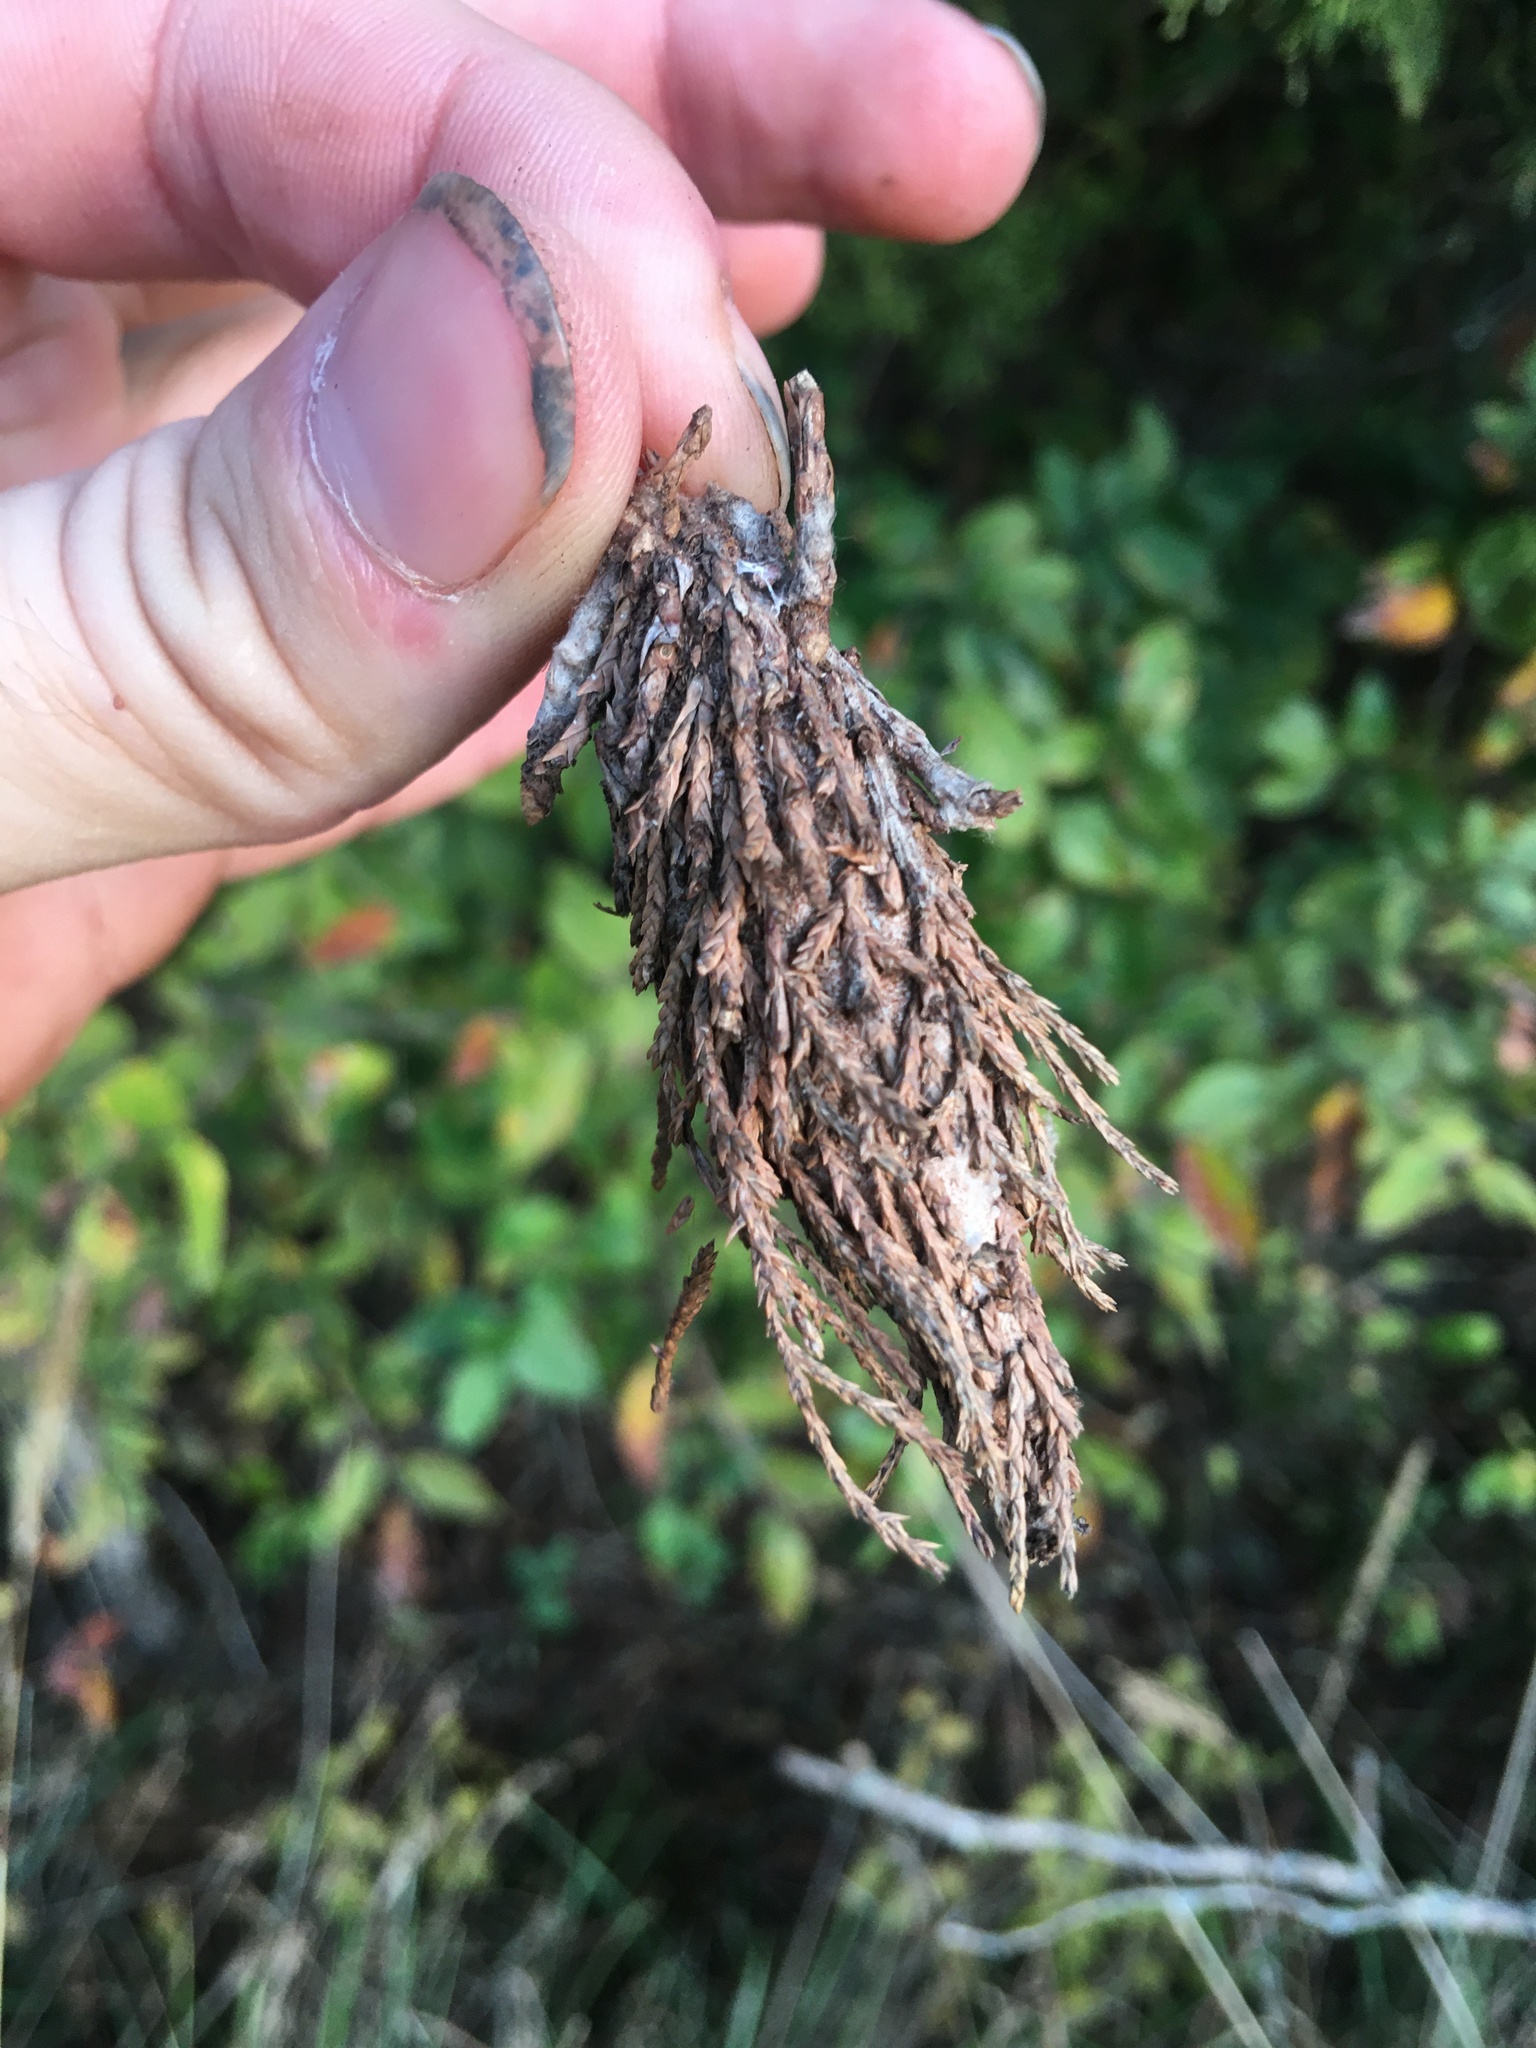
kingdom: Animalia
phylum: Arthropoda
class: Insecta
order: Lepidoptera
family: Psychidae
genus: Thyridopteryx
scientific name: Thyridopteryx ephemeraeformis
